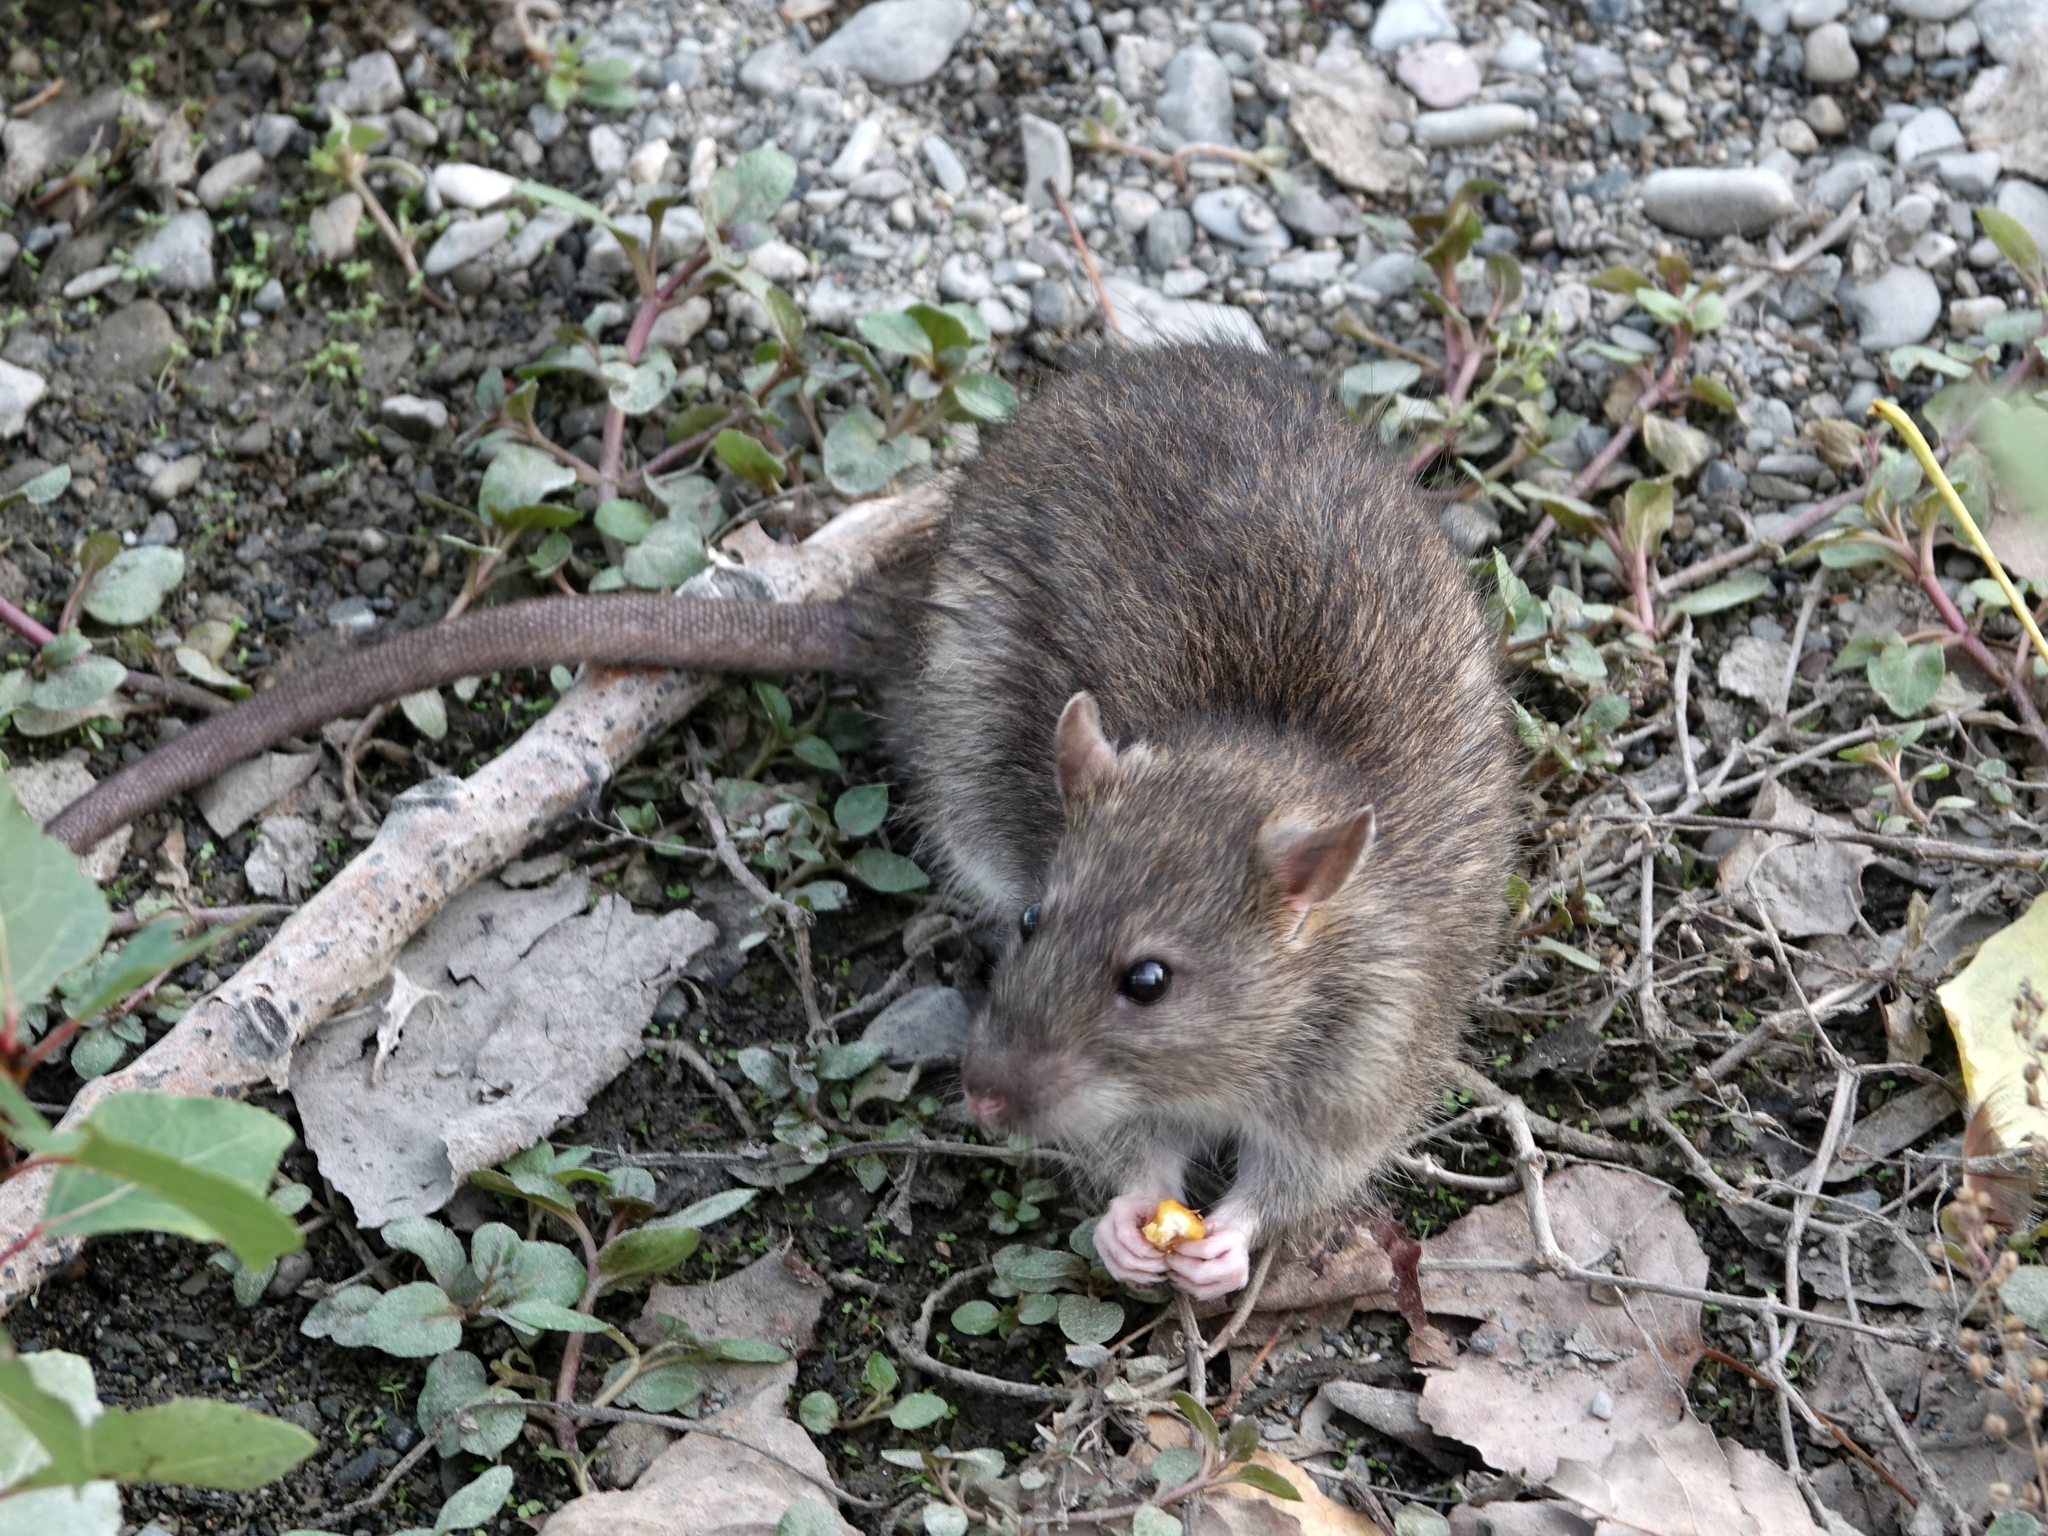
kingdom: Animalia
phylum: Chordata
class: Mammalia
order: Rodentia
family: Muridae
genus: Rattus
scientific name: Rattus norvegicus
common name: Brown rat
